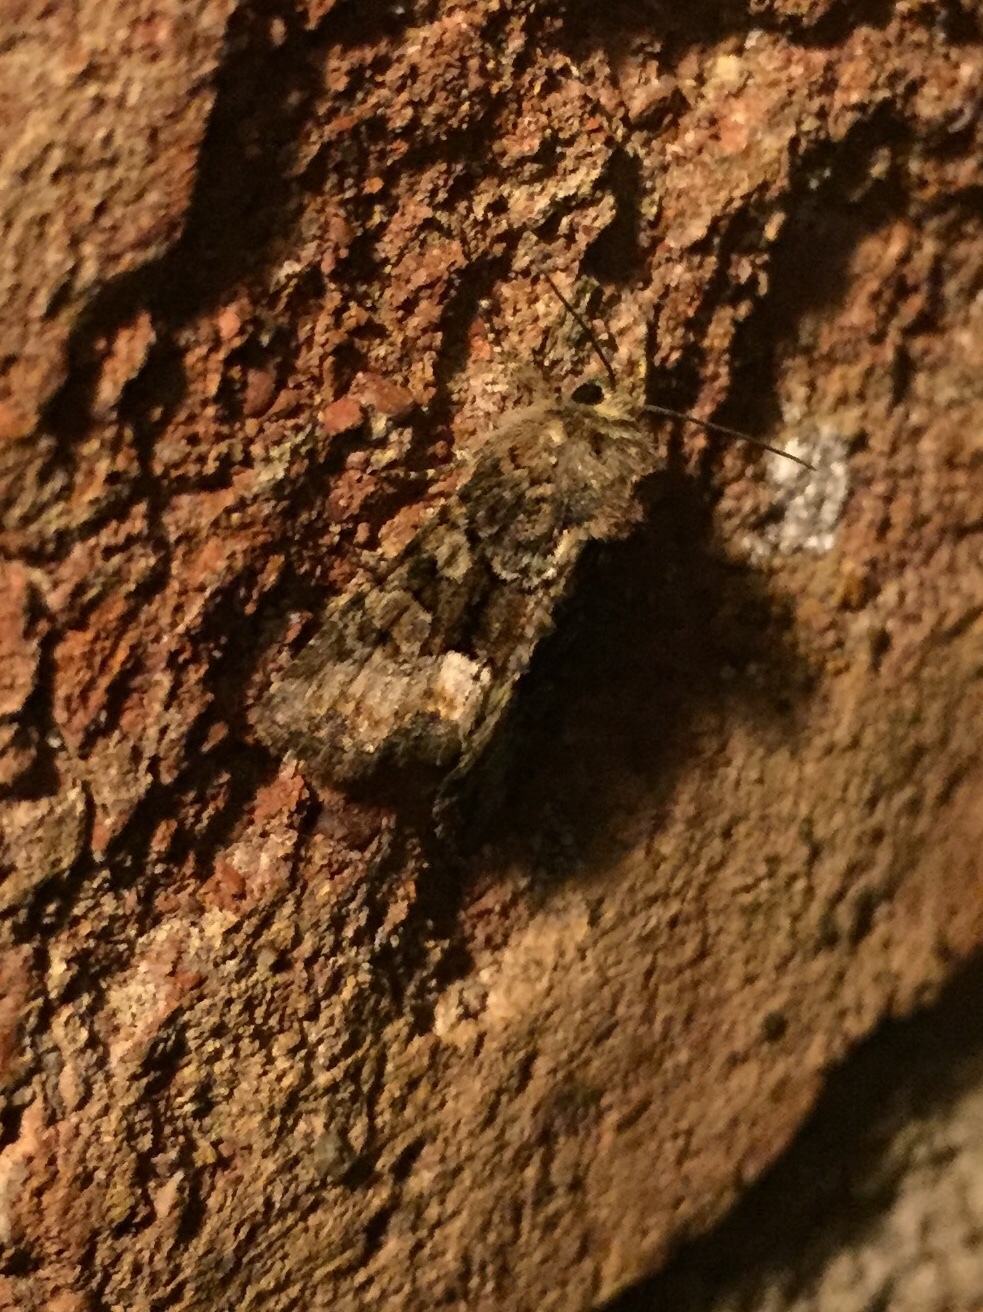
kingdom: Animalia
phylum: Arthropoda
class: Insecta
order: Lepidoptera
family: Noctuidae
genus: Oligia
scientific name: Oligia
